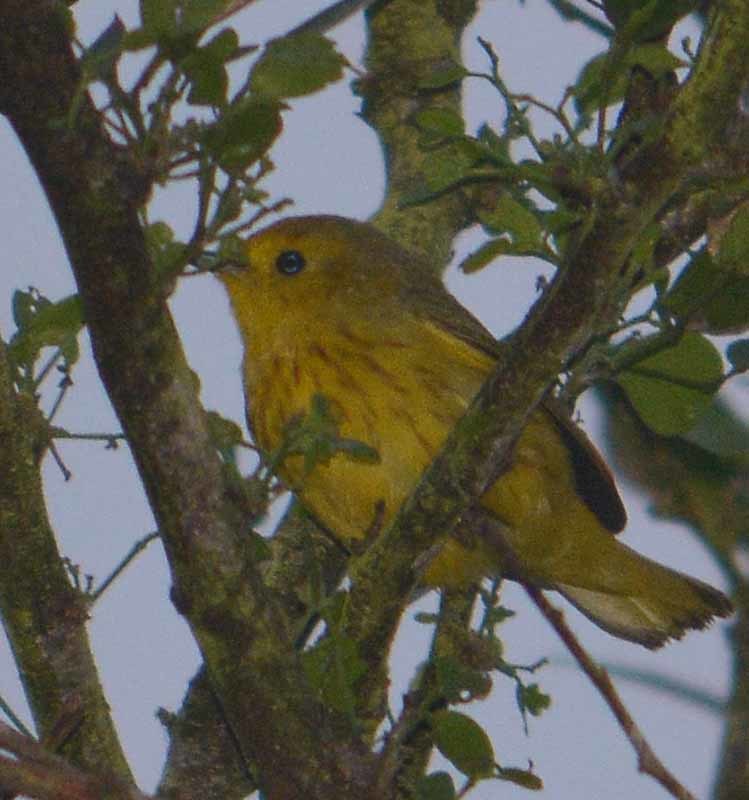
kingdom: Animalia
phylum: Chordata
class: Aves
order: Passeriformes
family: Parulidae
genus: Setophaga
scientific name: Setophaga petechia
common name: Yellow warbler
